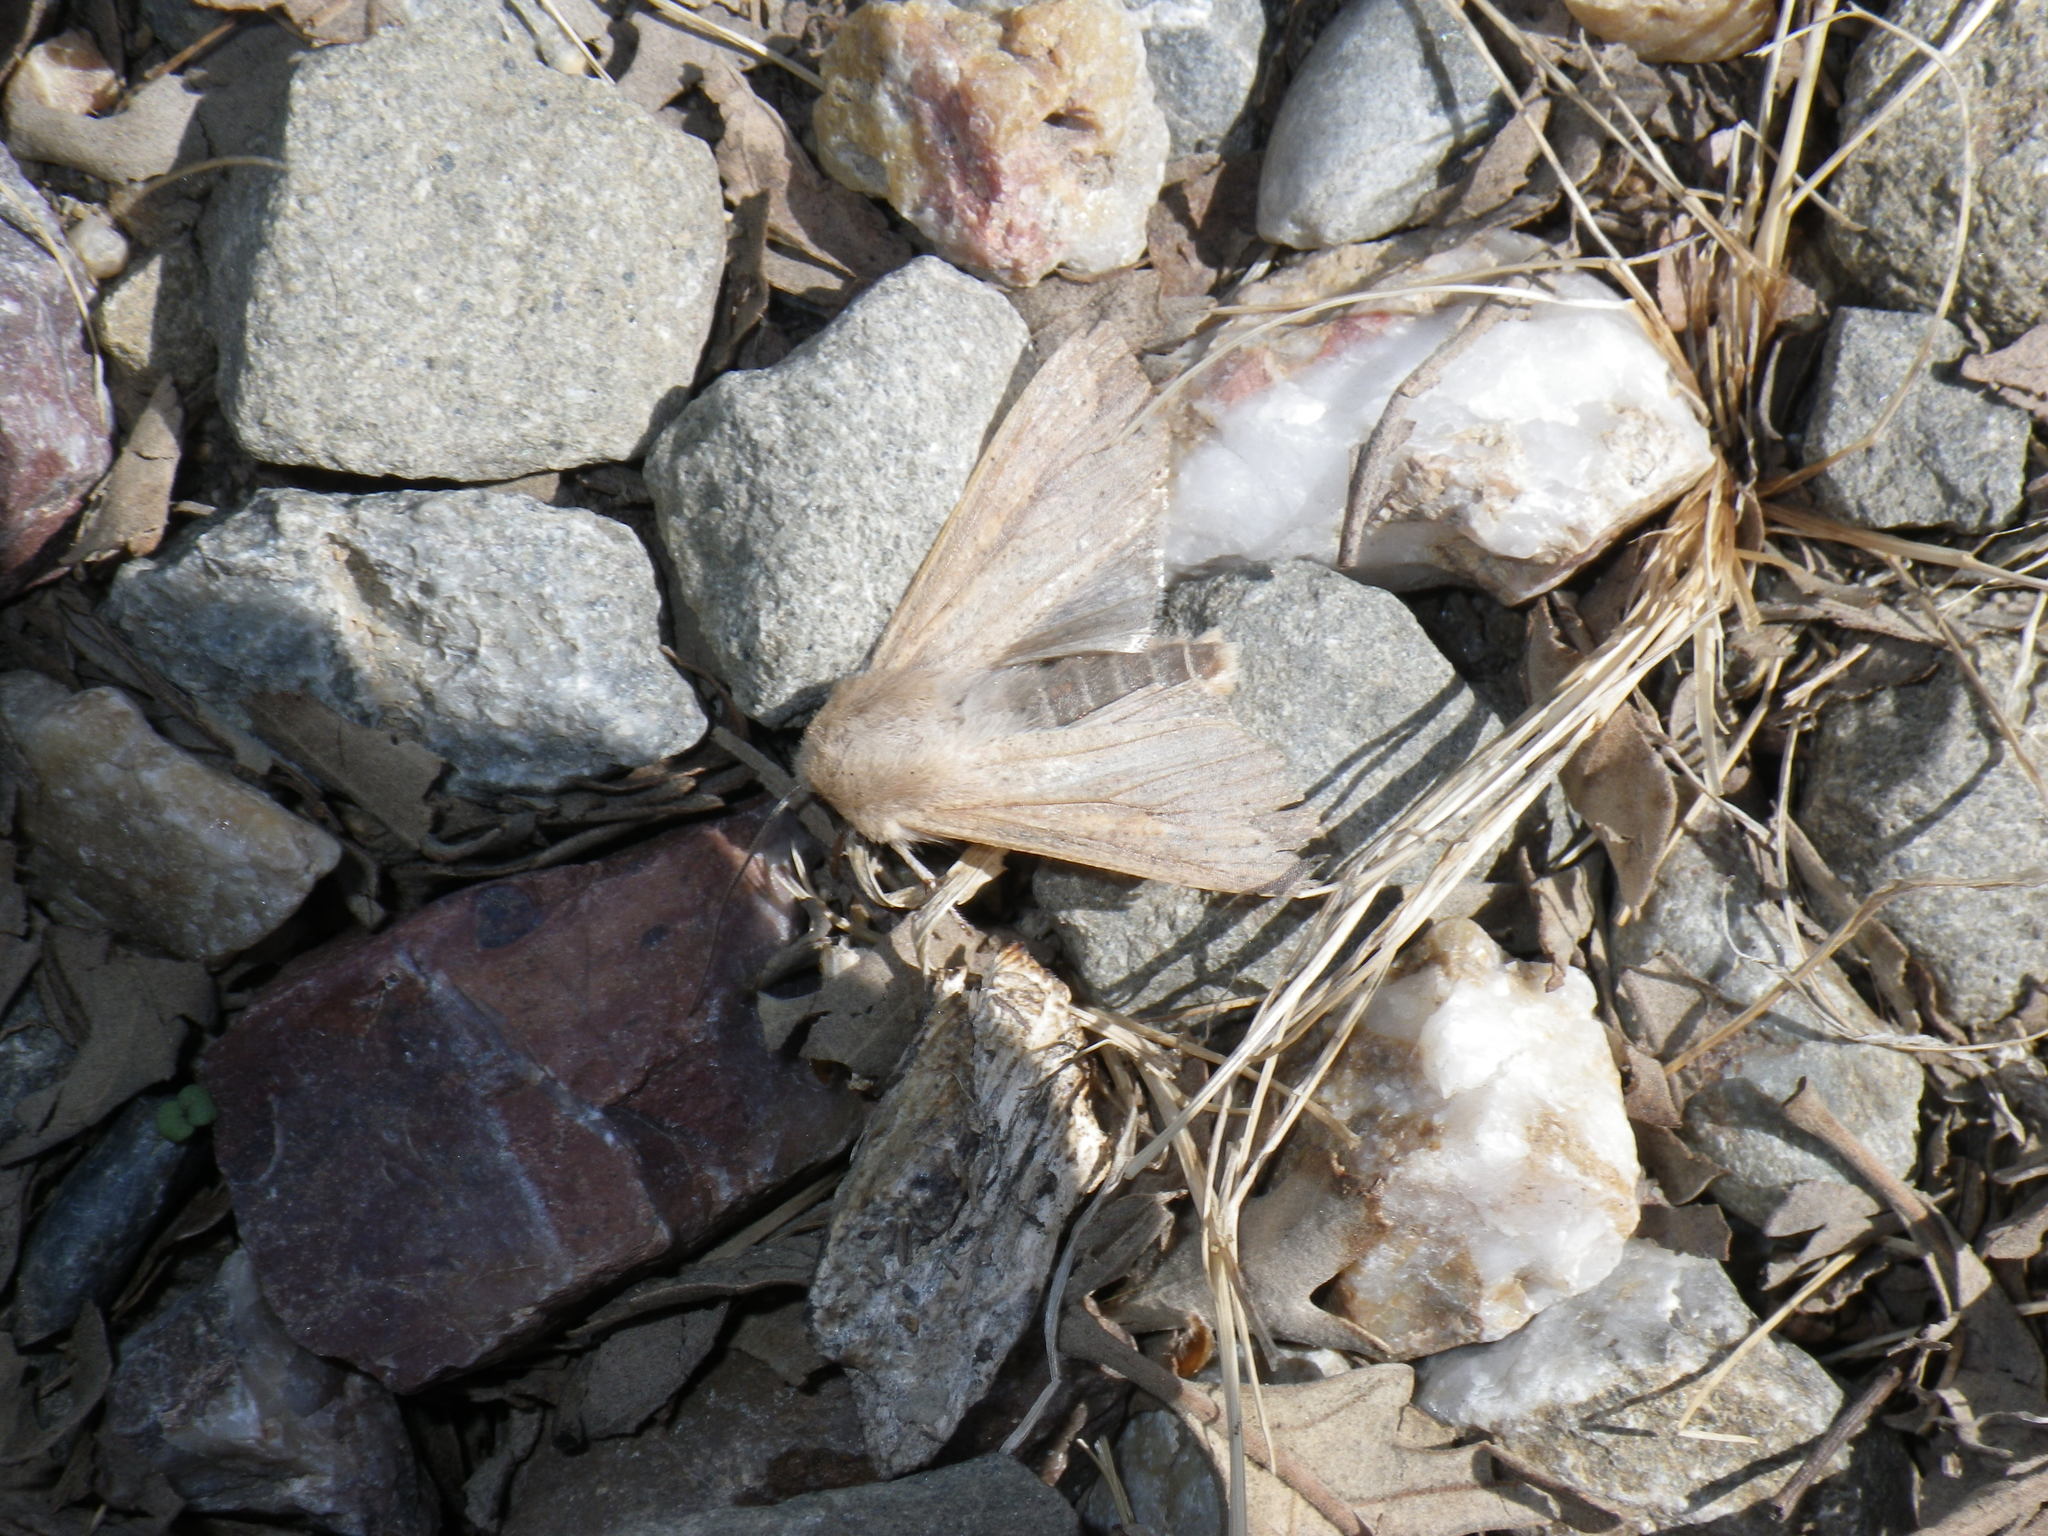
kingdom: Animalia
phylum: Arthropoda
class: Insecta
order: Lepidoptera
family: Noctuidae
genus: Mythimna
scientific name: Mythimna unipuncta
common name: White-speck
